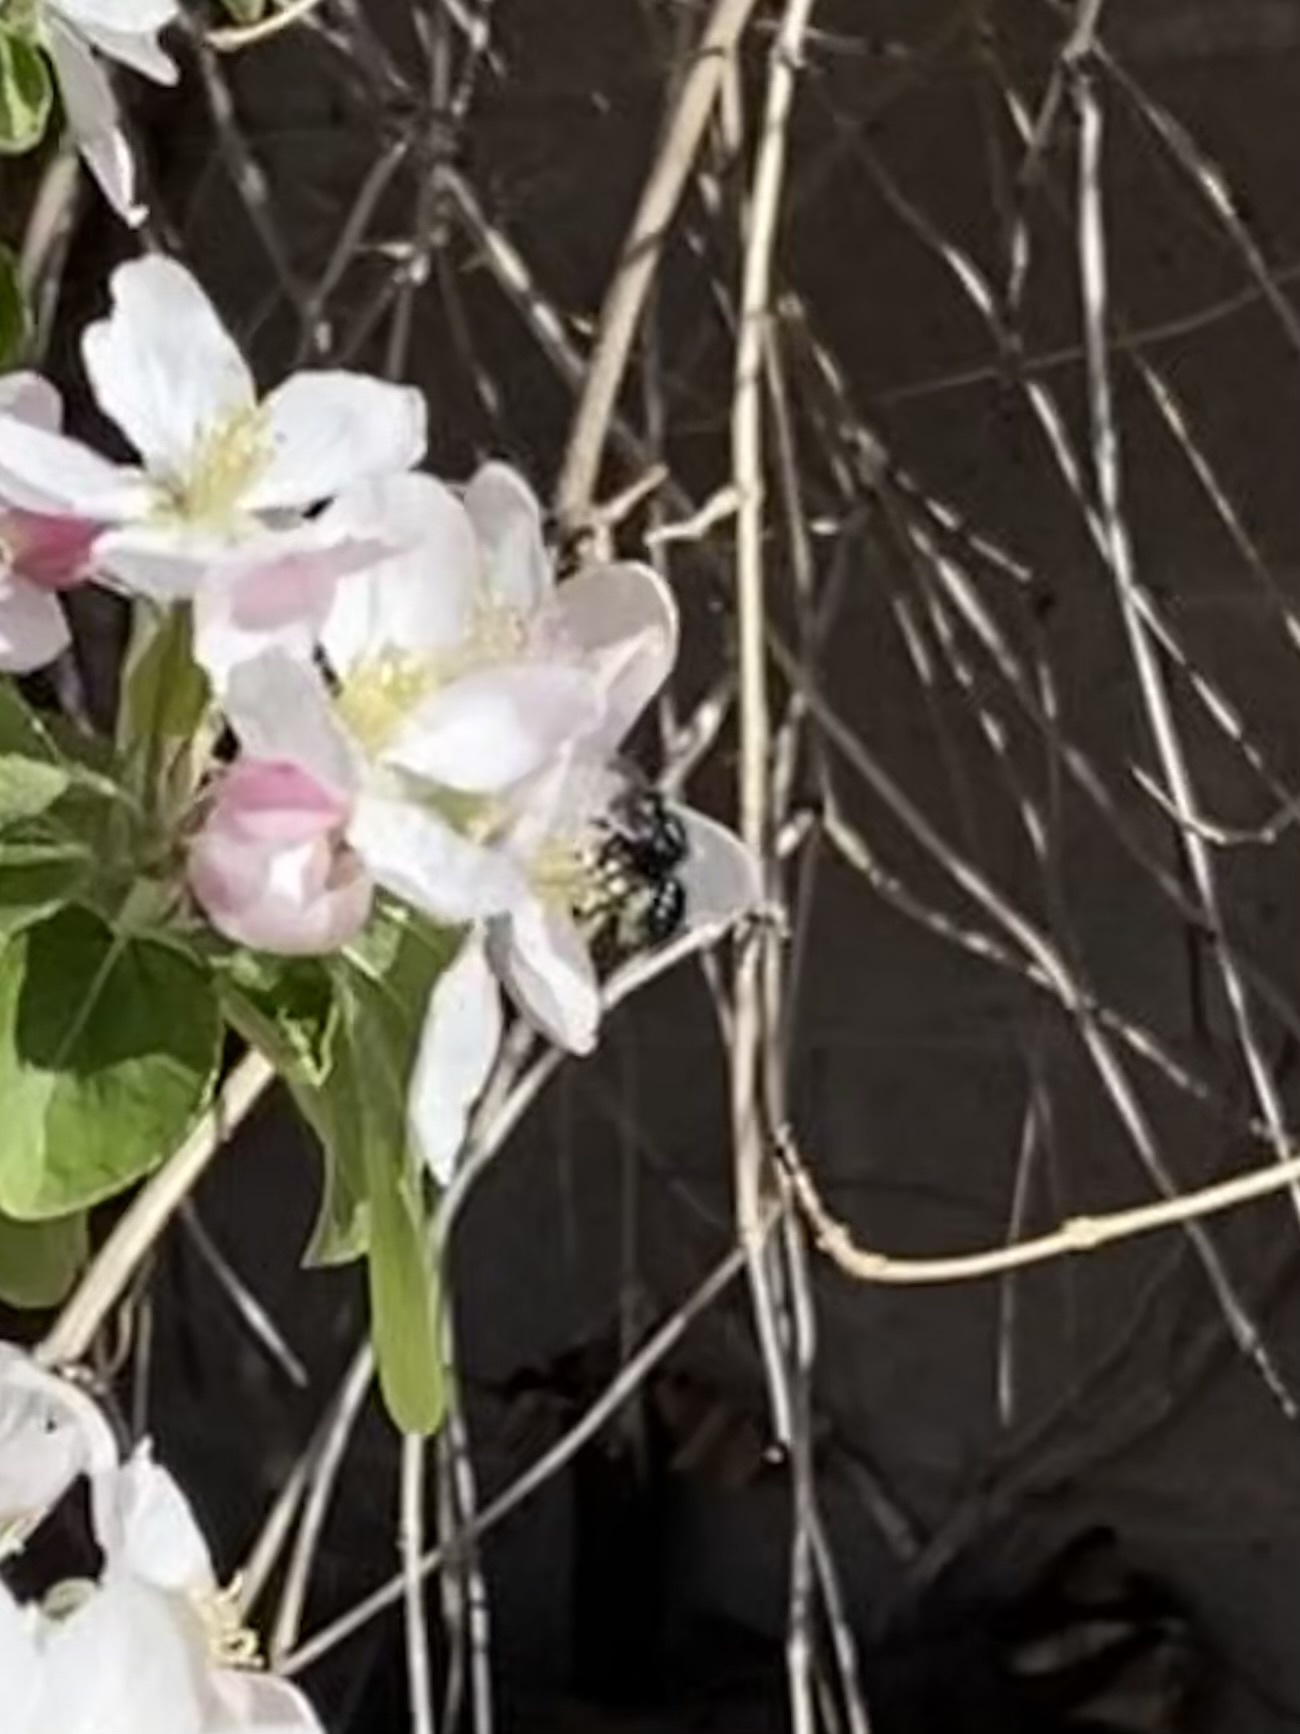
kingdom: Animalia
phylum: Arthropoda
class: Insecta
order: Hymenoptera
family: Megachilidae
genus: Osmia
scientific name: Osmia ribifloris
